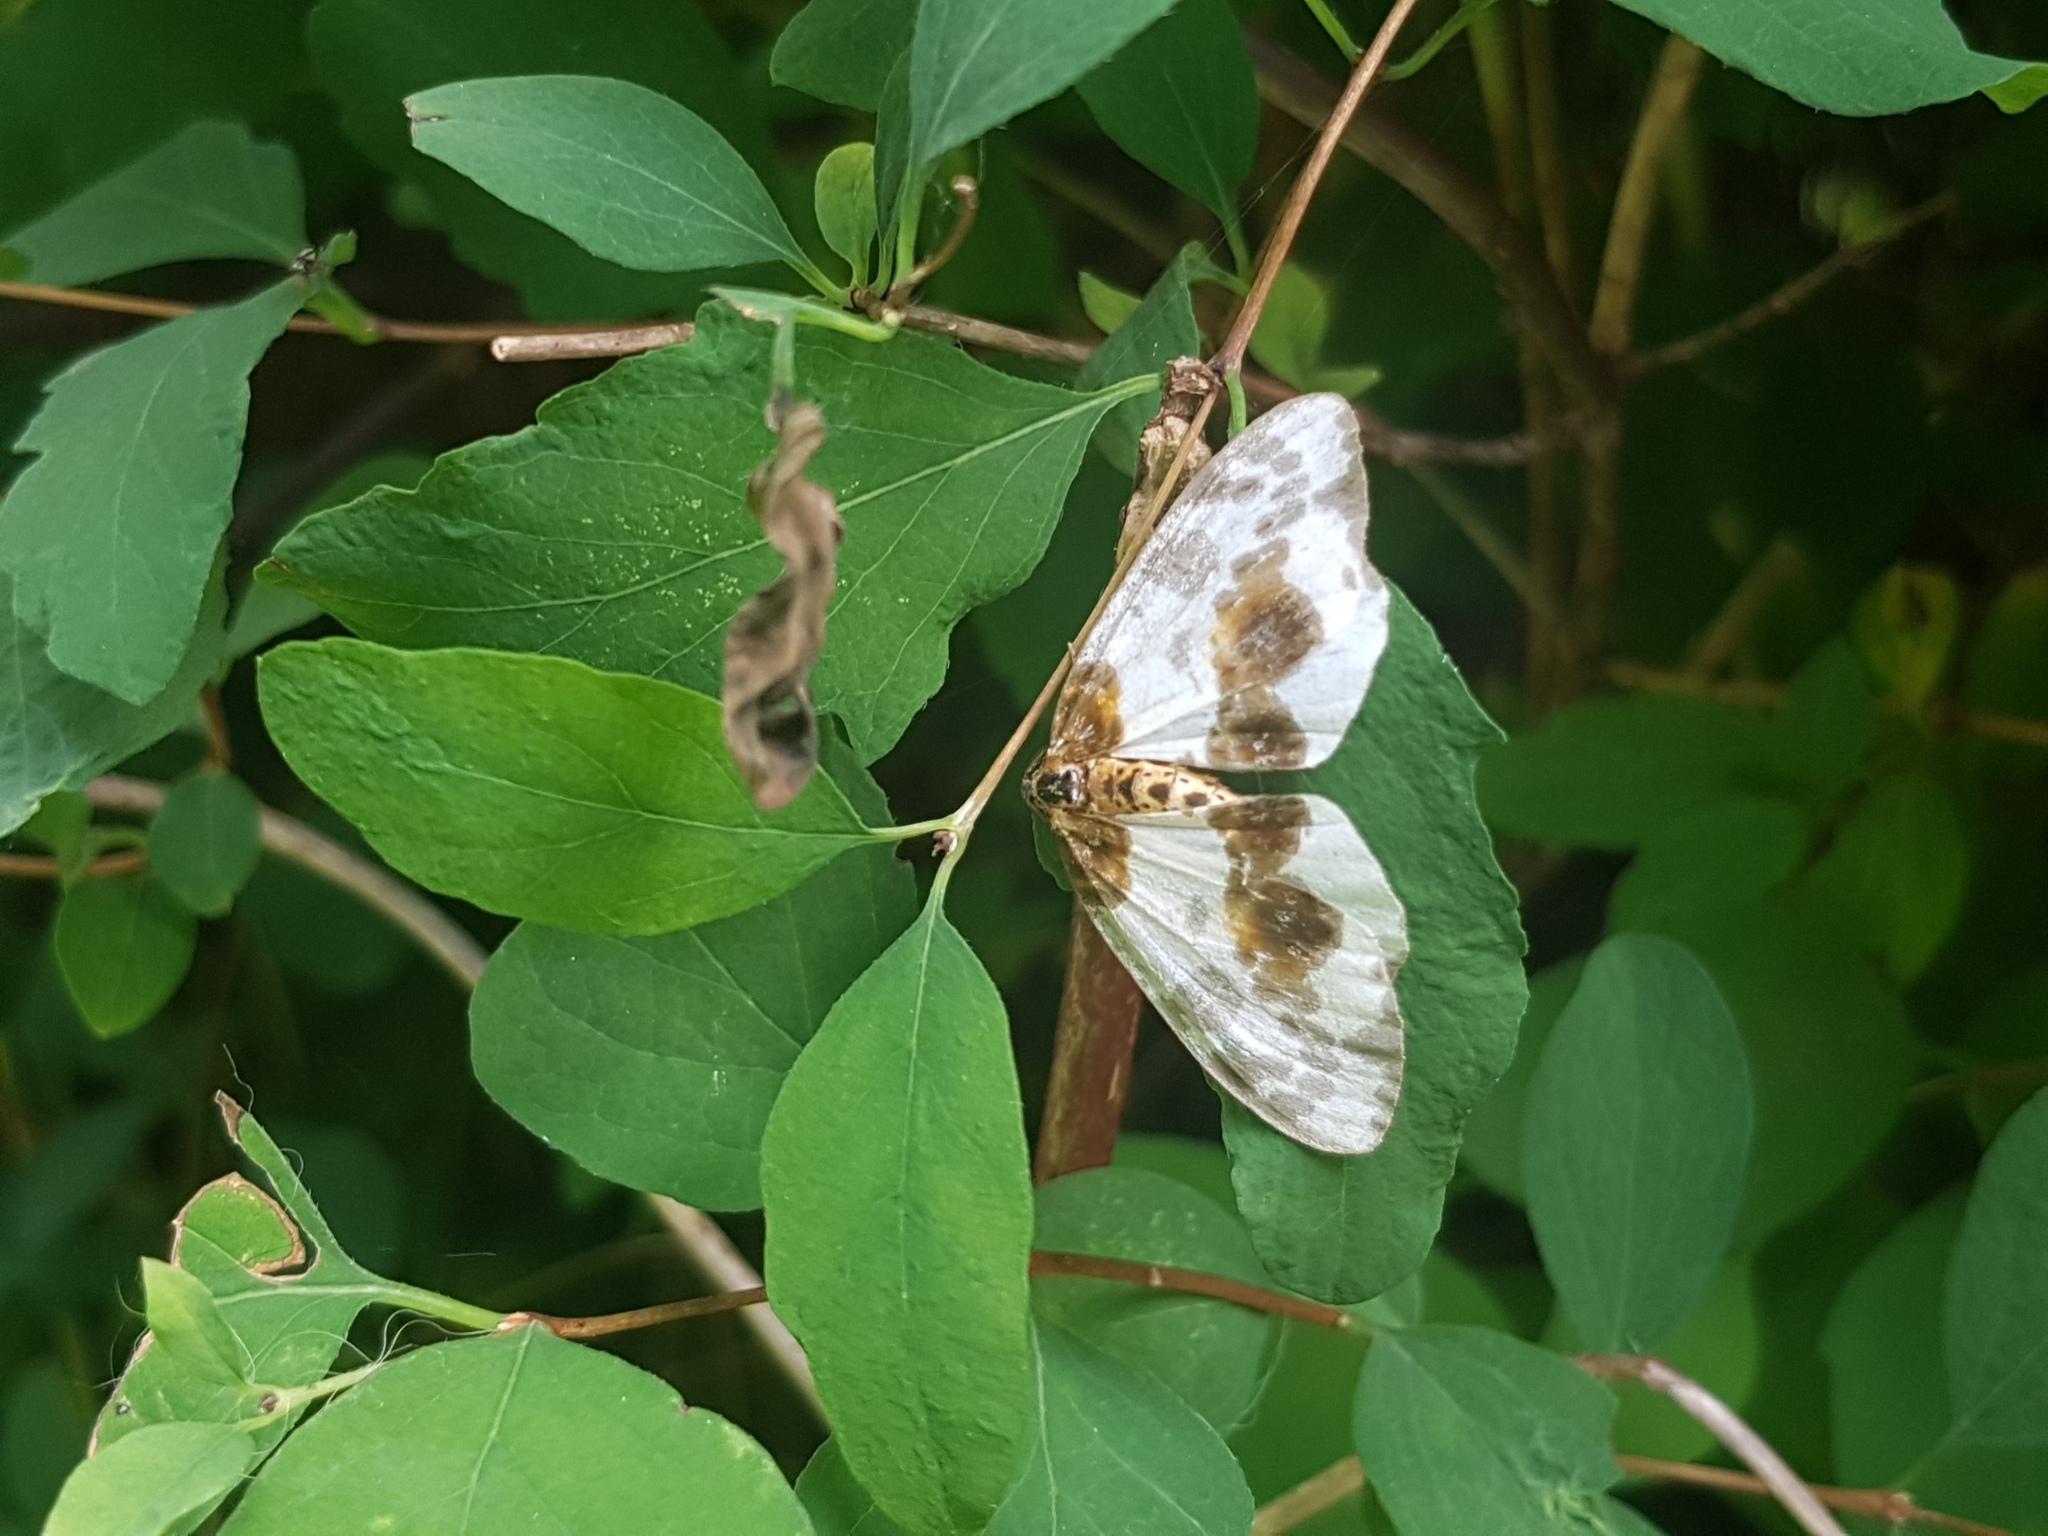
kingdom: Animalia
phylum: Arthropoda
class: Insecta
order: Lepidoptera
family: Geometridae
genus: Abraxas
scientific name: Abraxas sylvata
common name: Clouded magpie
